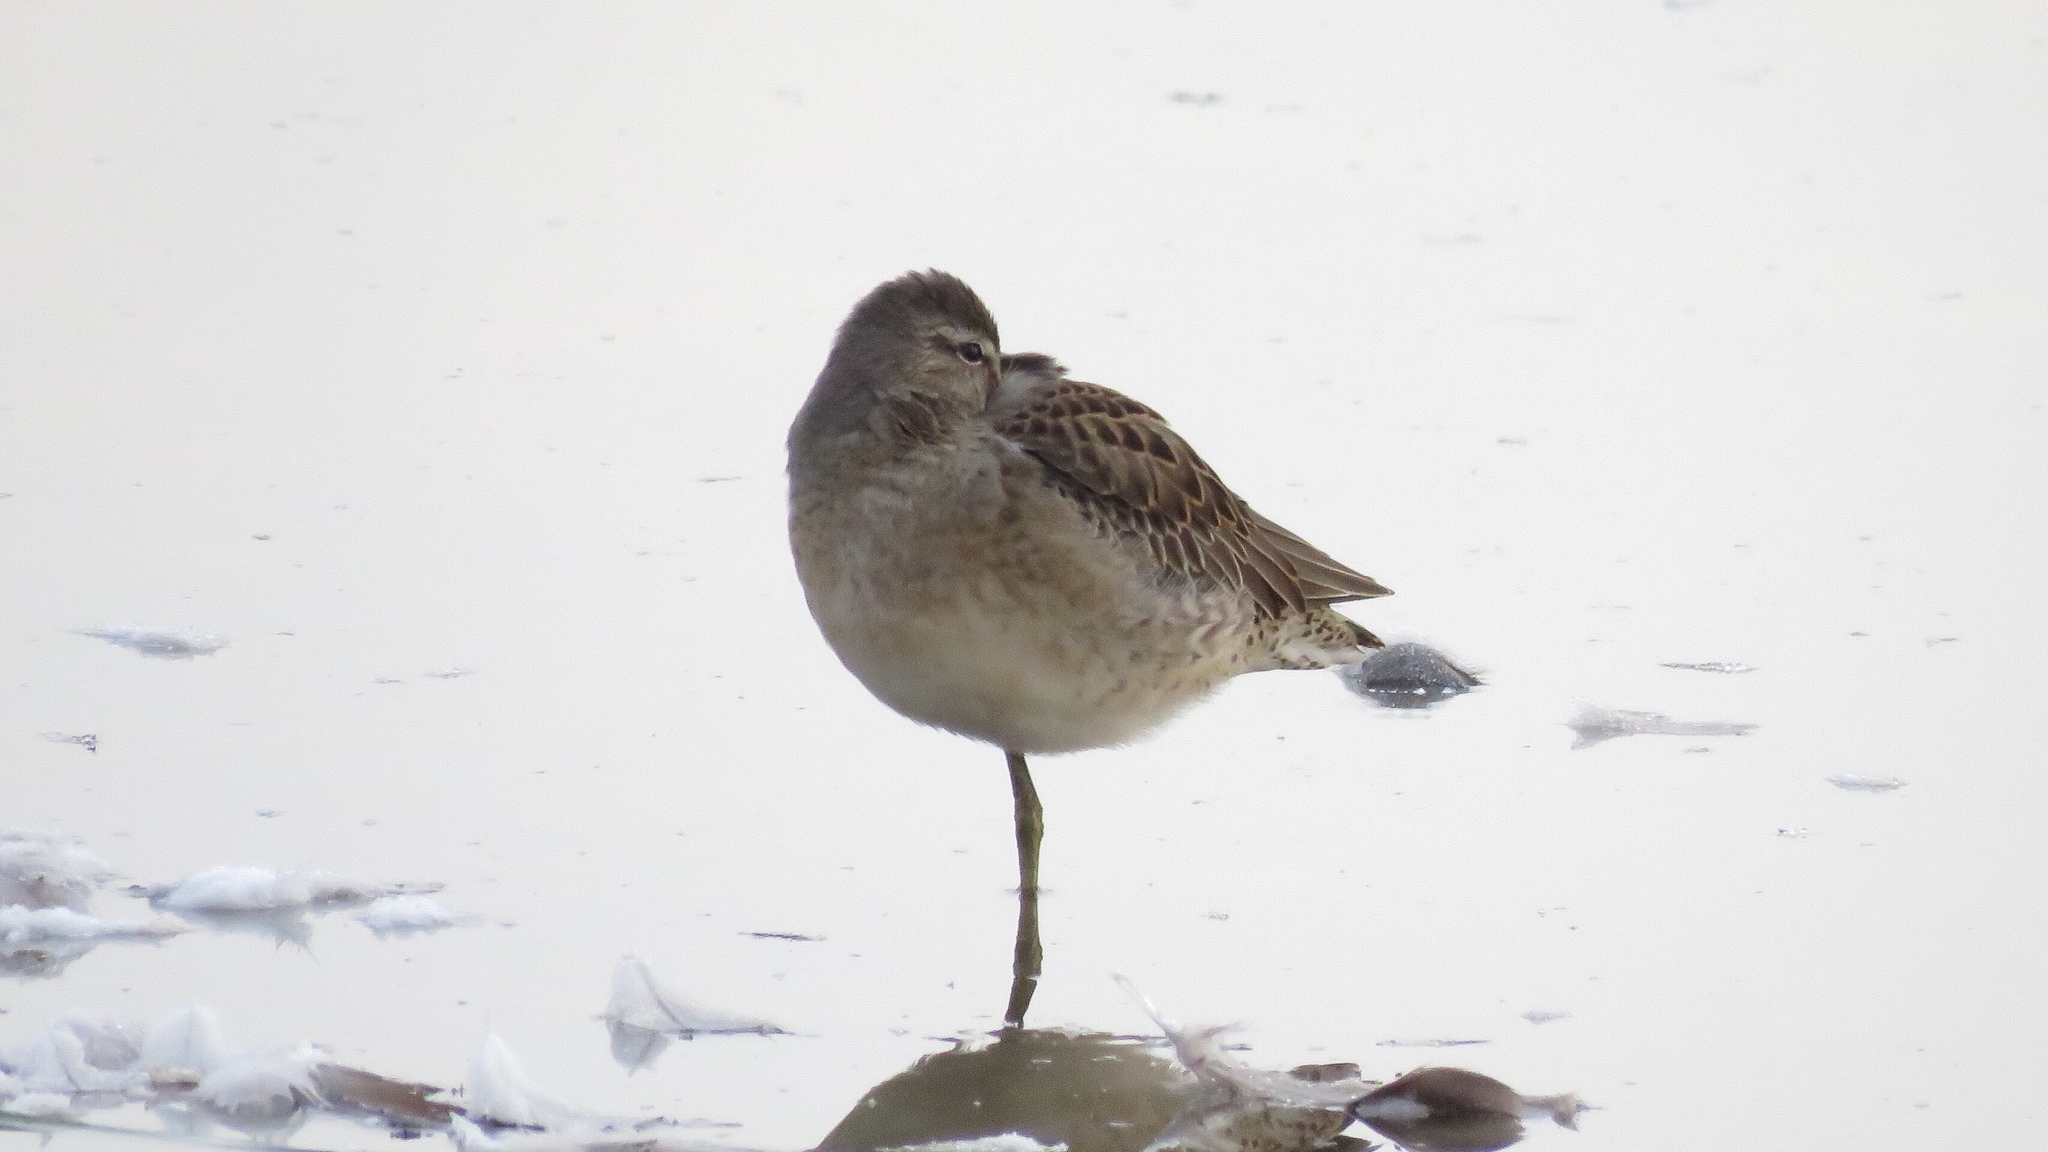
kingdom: Animalia
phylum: Chordata
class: Aves
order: Charadriiformes
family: Scolopacidae
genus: Limnodromus
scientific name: Limnodromus scolopaceus
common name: Long-billed dowitcher
